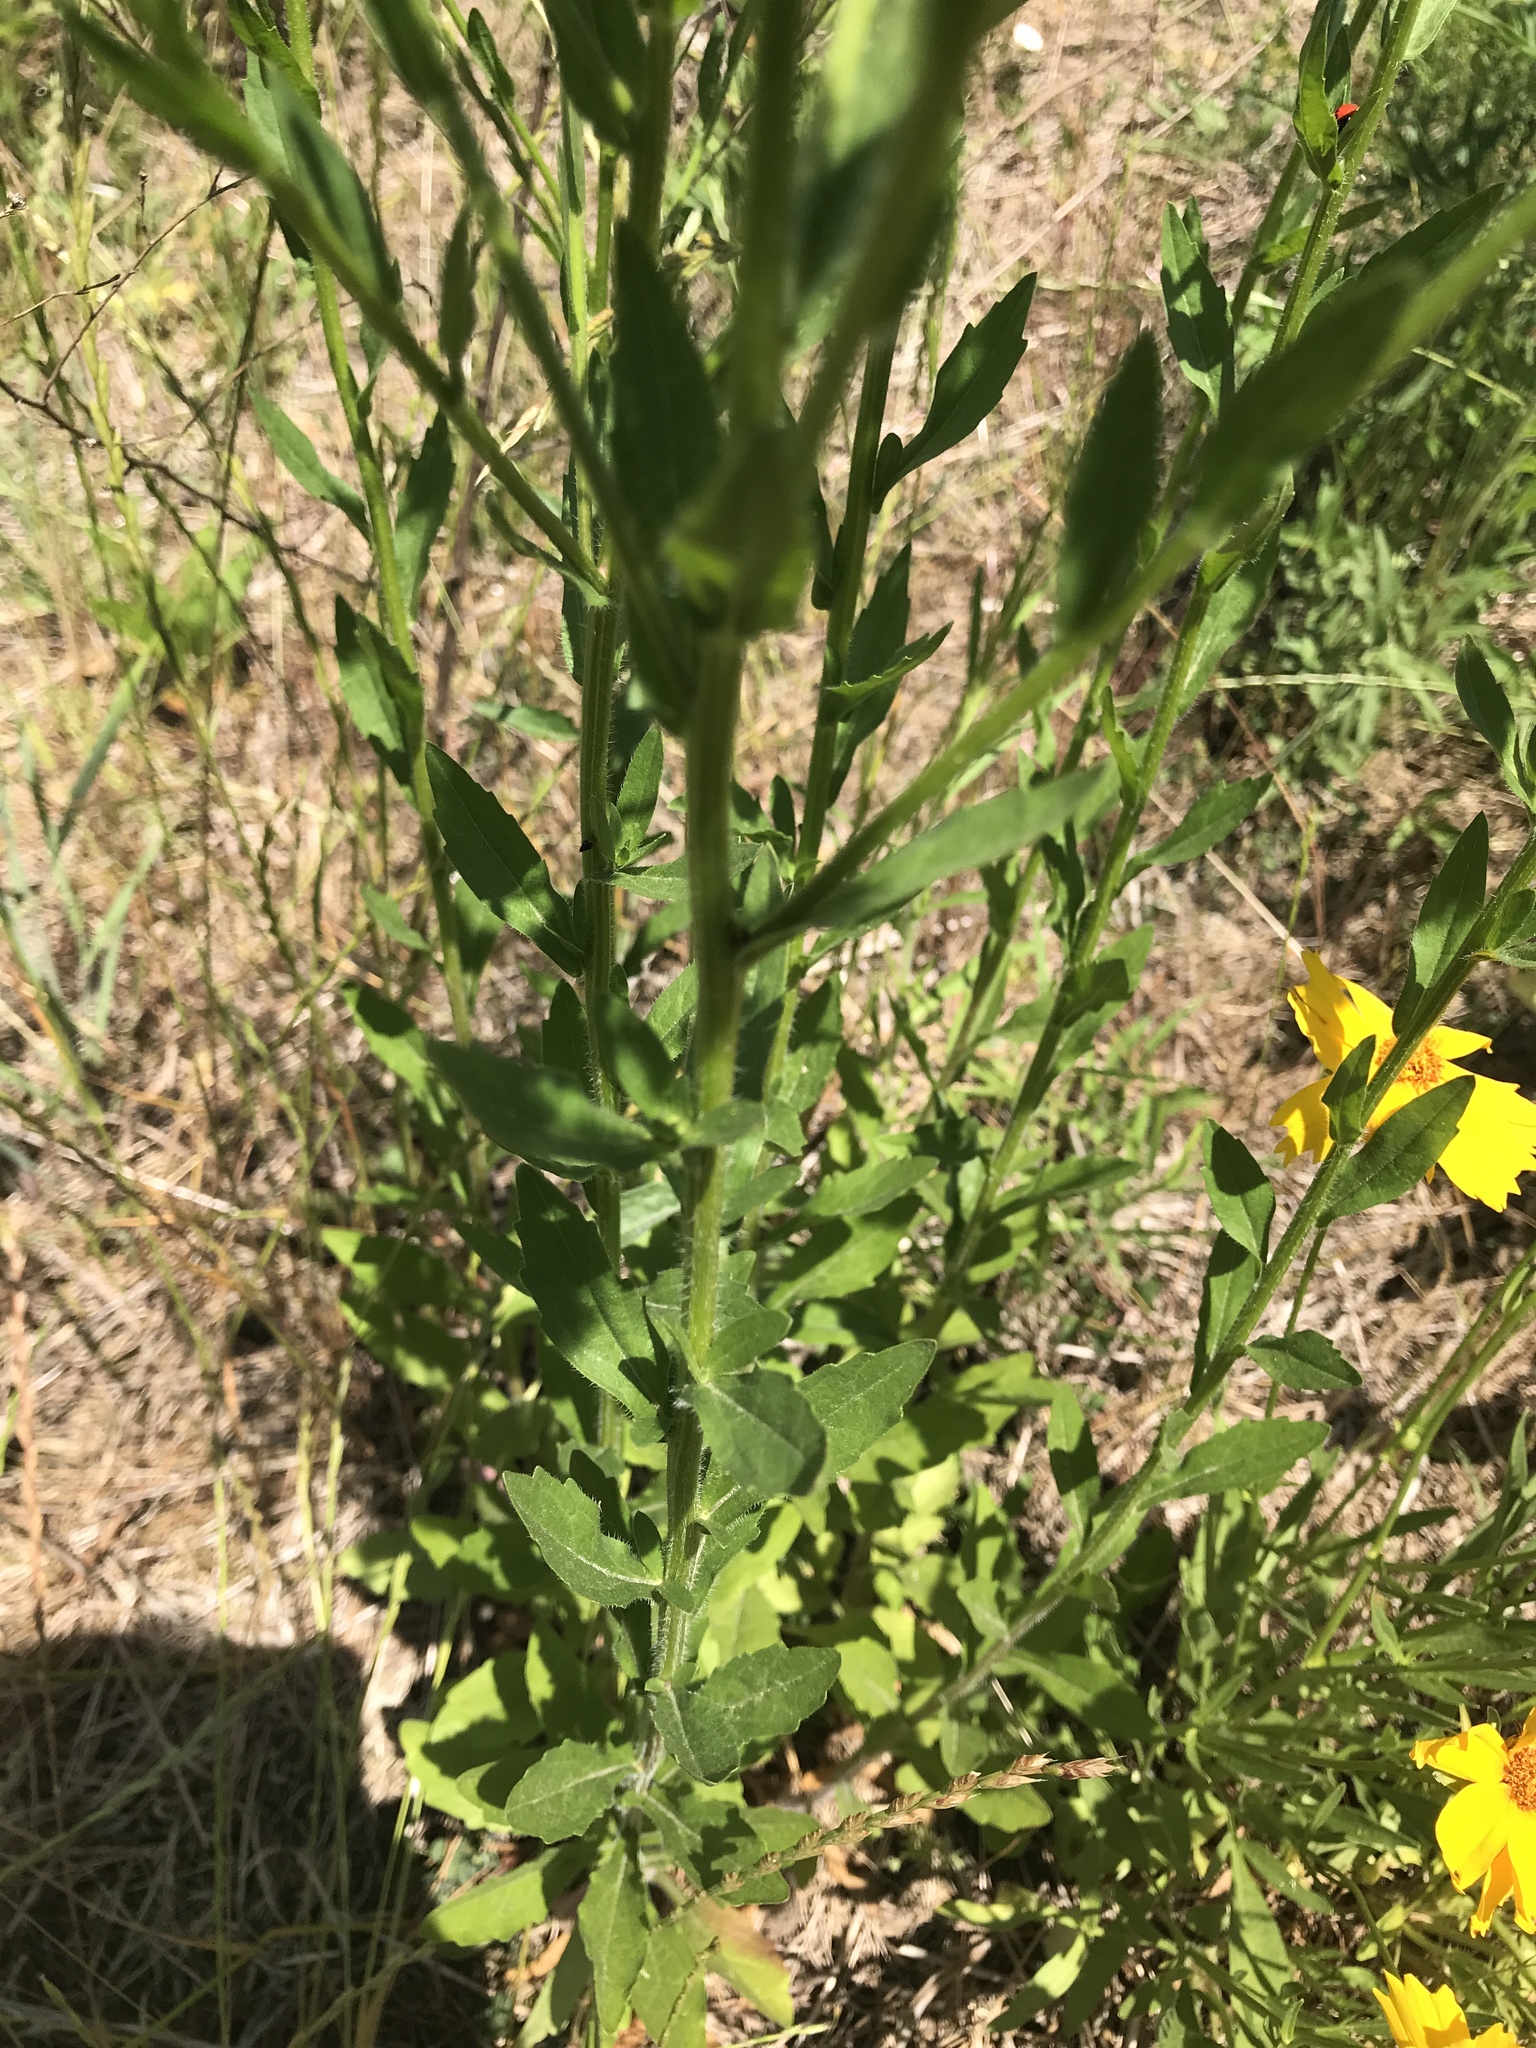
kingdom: Plantae
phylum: Tracheophyta
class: Magnoliopsida
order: Asterales
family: Asteraceae
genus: Erigeron
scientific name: Erigeron strigosus
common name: Common eastern fleabane
